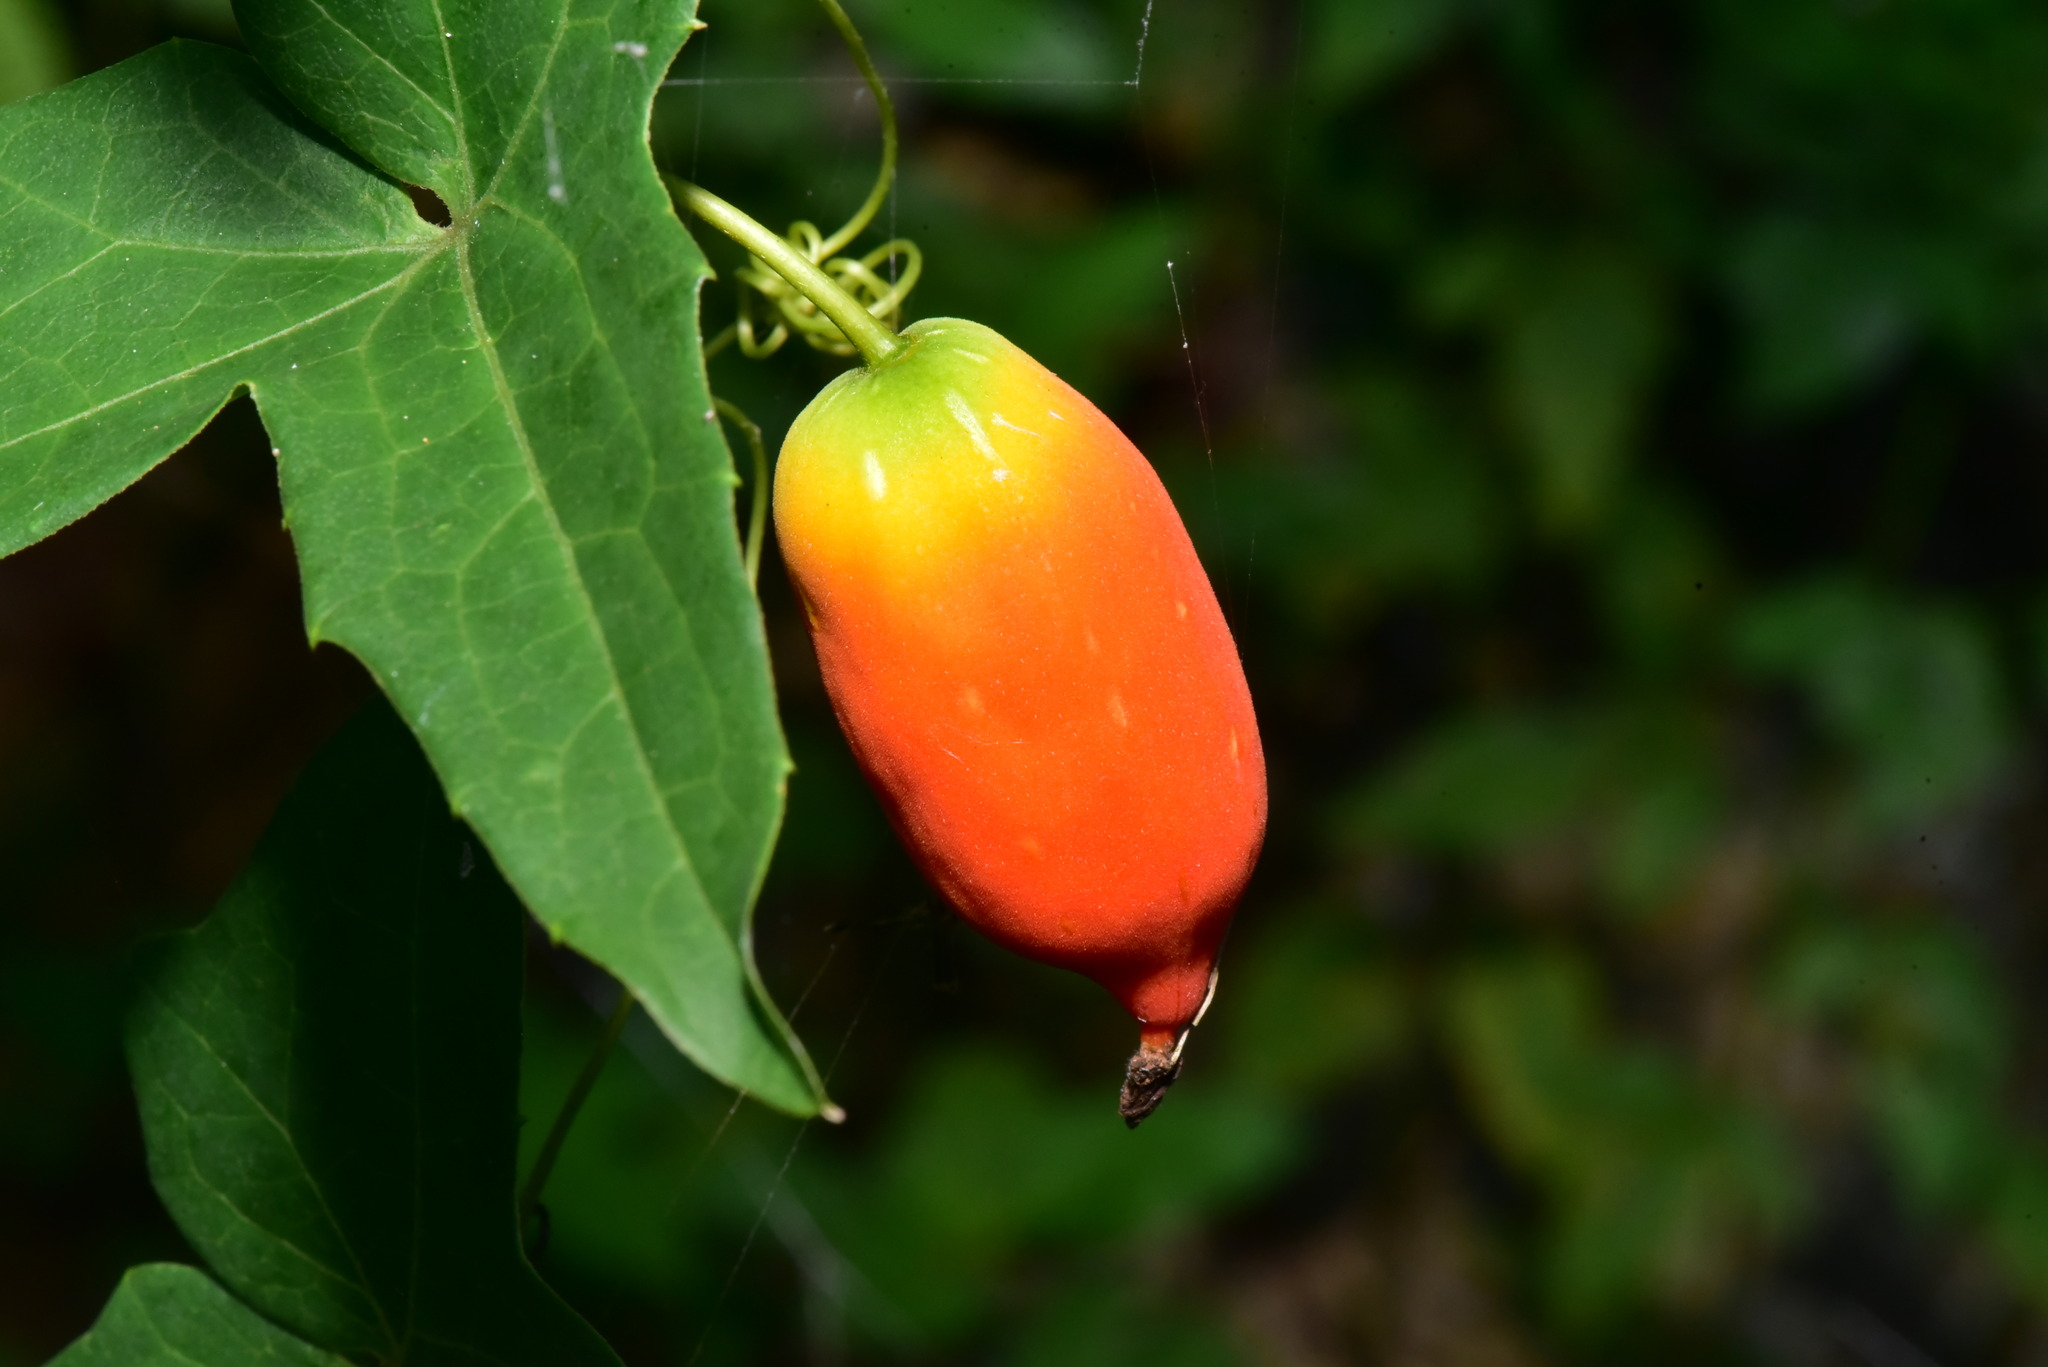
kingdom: Plantae
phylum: Tracheophyta
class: Magnoliopsida
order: Cucurbitales
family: Cucurbitaceae
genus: Solena
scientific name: Solena amplexicaulis
